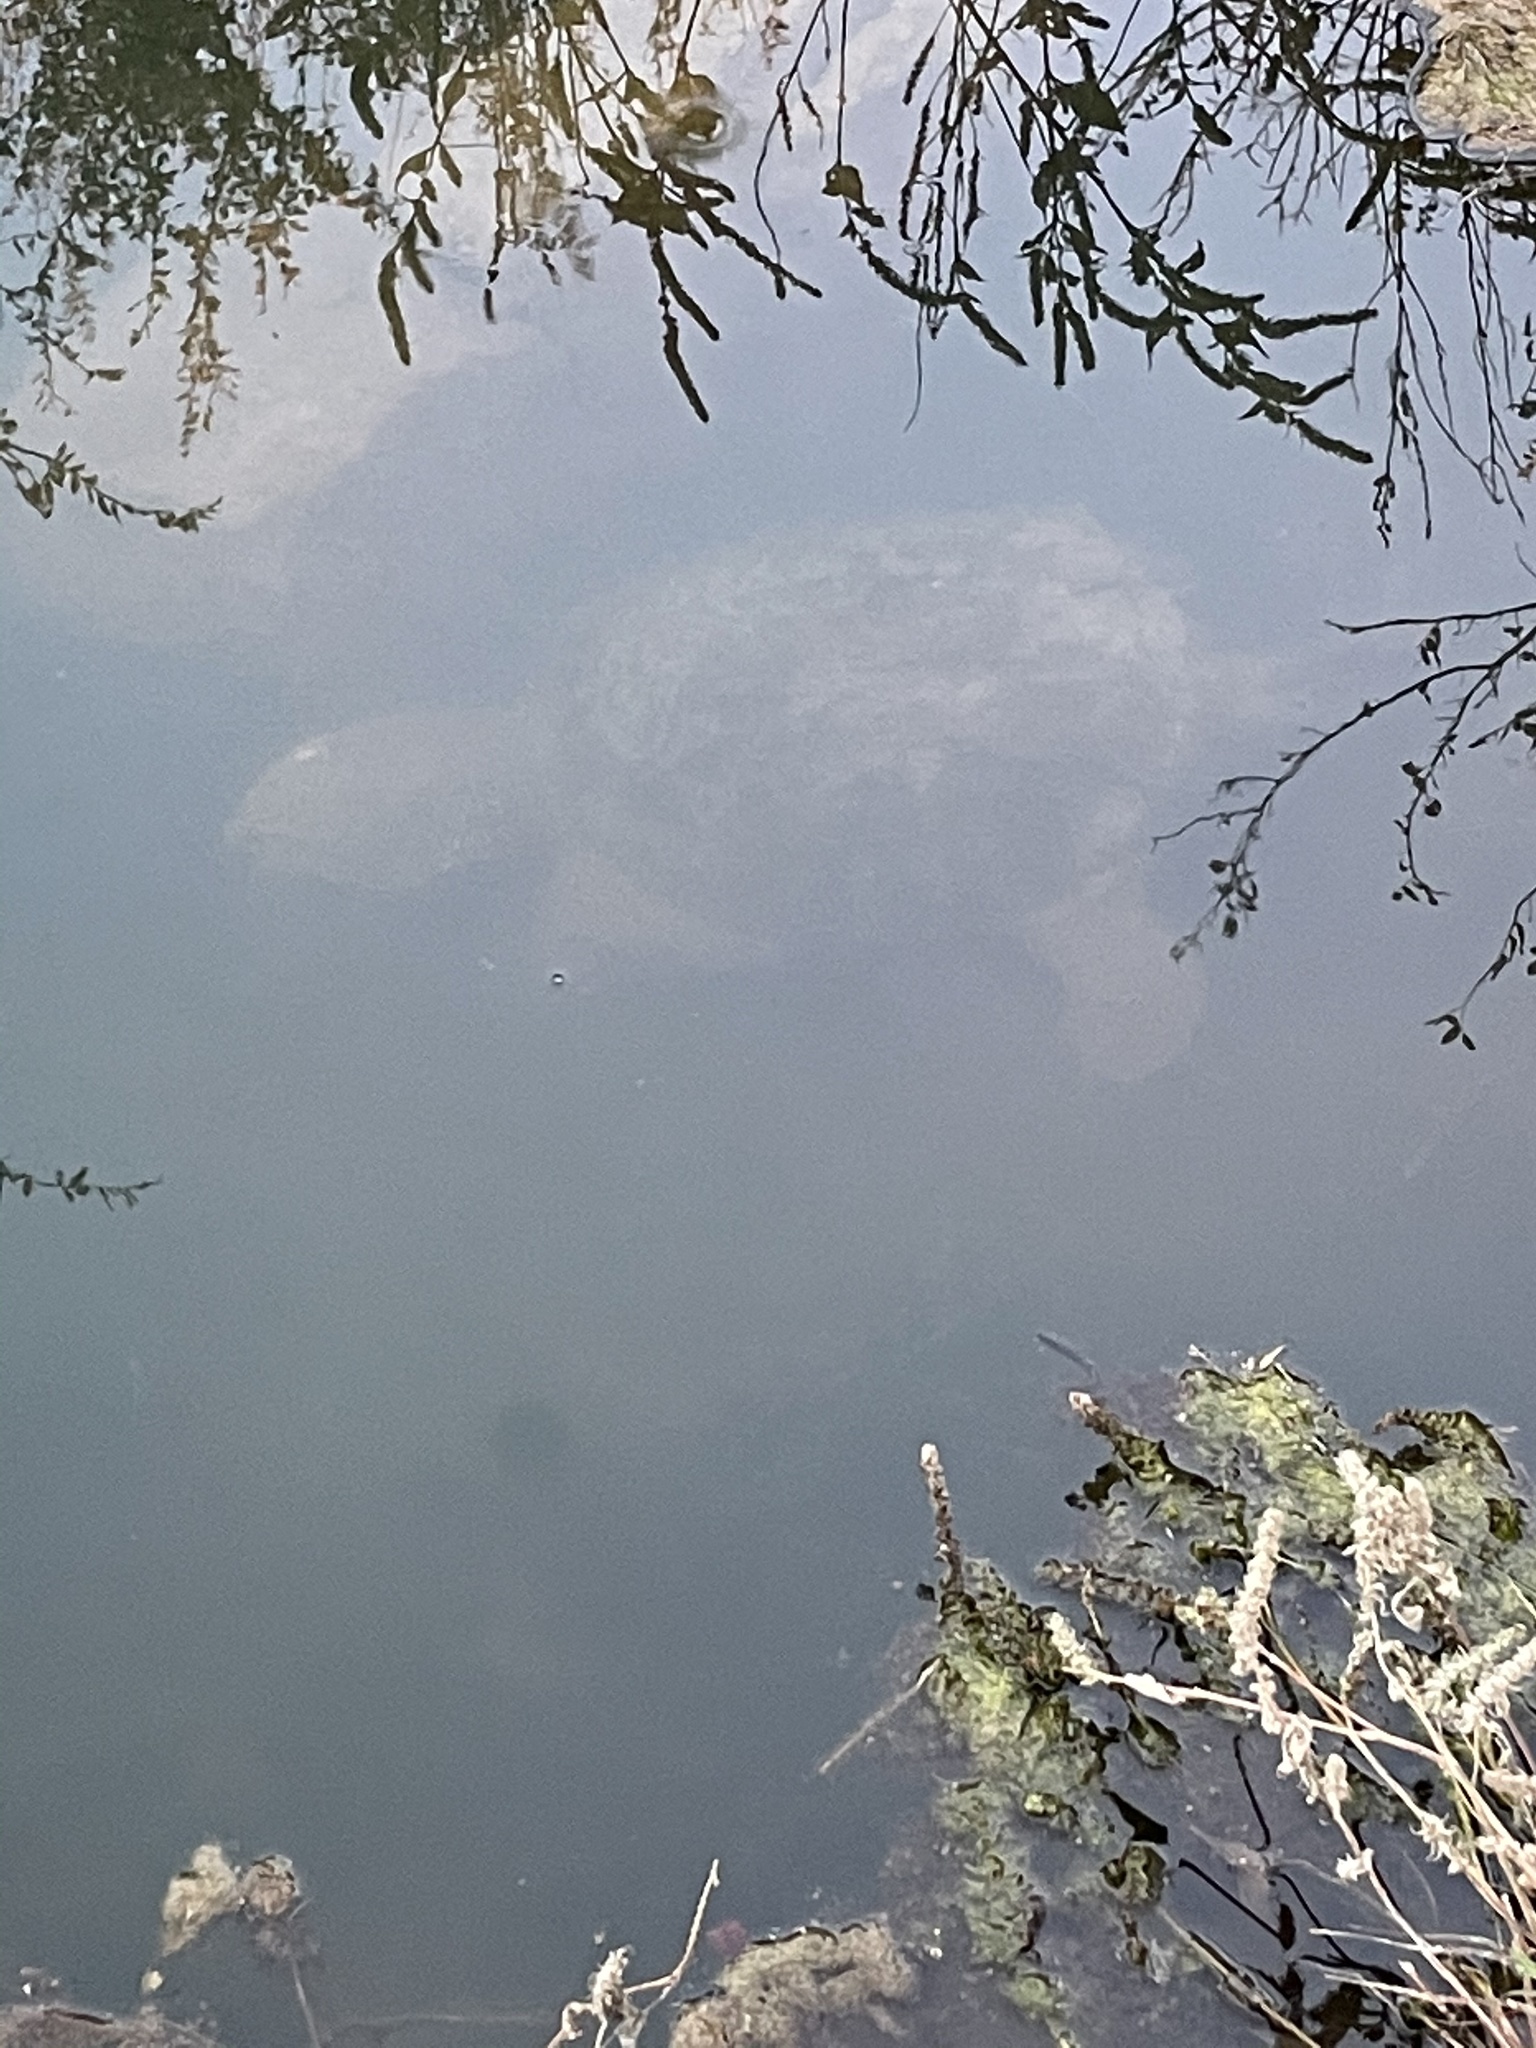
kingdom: Animalia
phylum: Chordata
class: Testudines
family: Chelydridae
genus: Chelydra
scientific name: Chelydra serpentina
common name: Common snapping turtle
